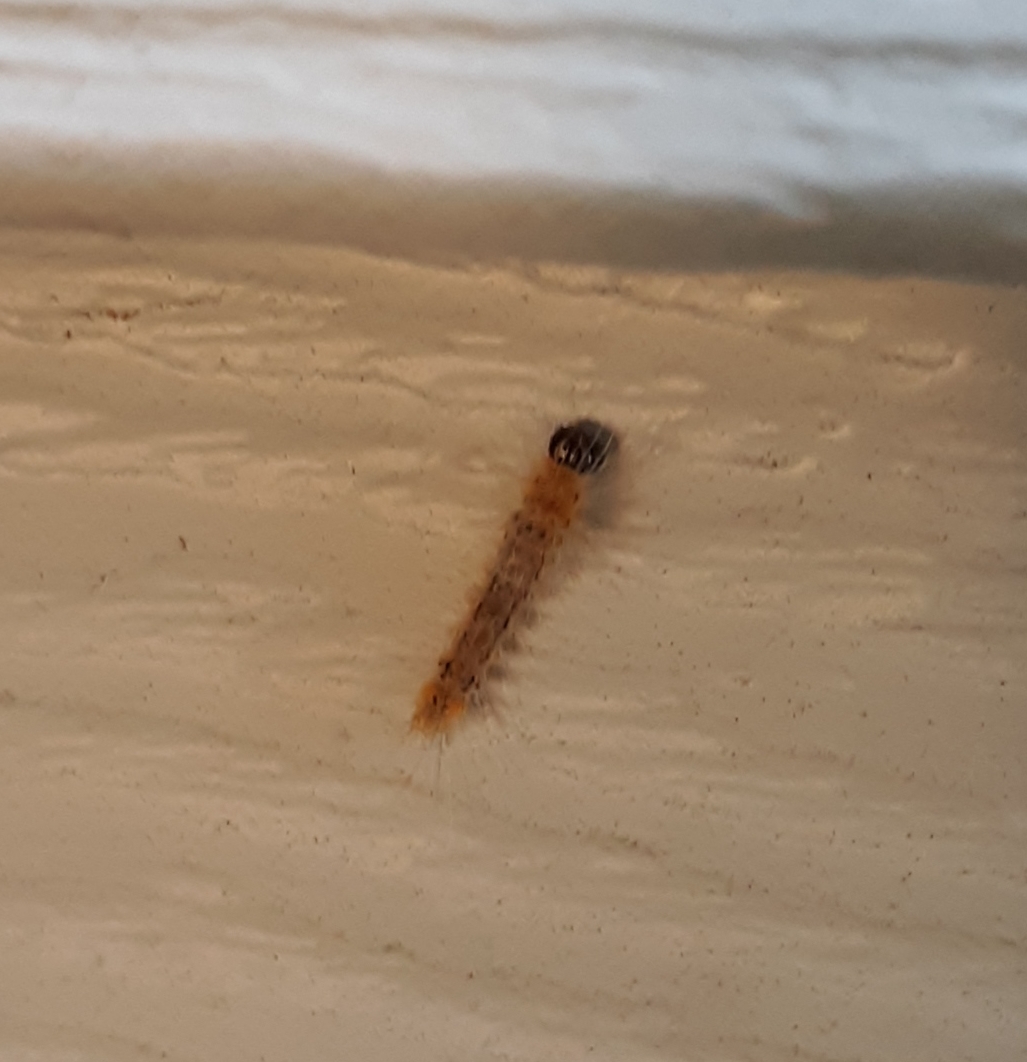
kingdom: Animalia
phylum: Arthropoda
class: Insecta
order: Lepidoptera
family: Erebidae
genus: Halysidota
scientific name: Halysidota tessellaris
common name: Banded tussock moth
